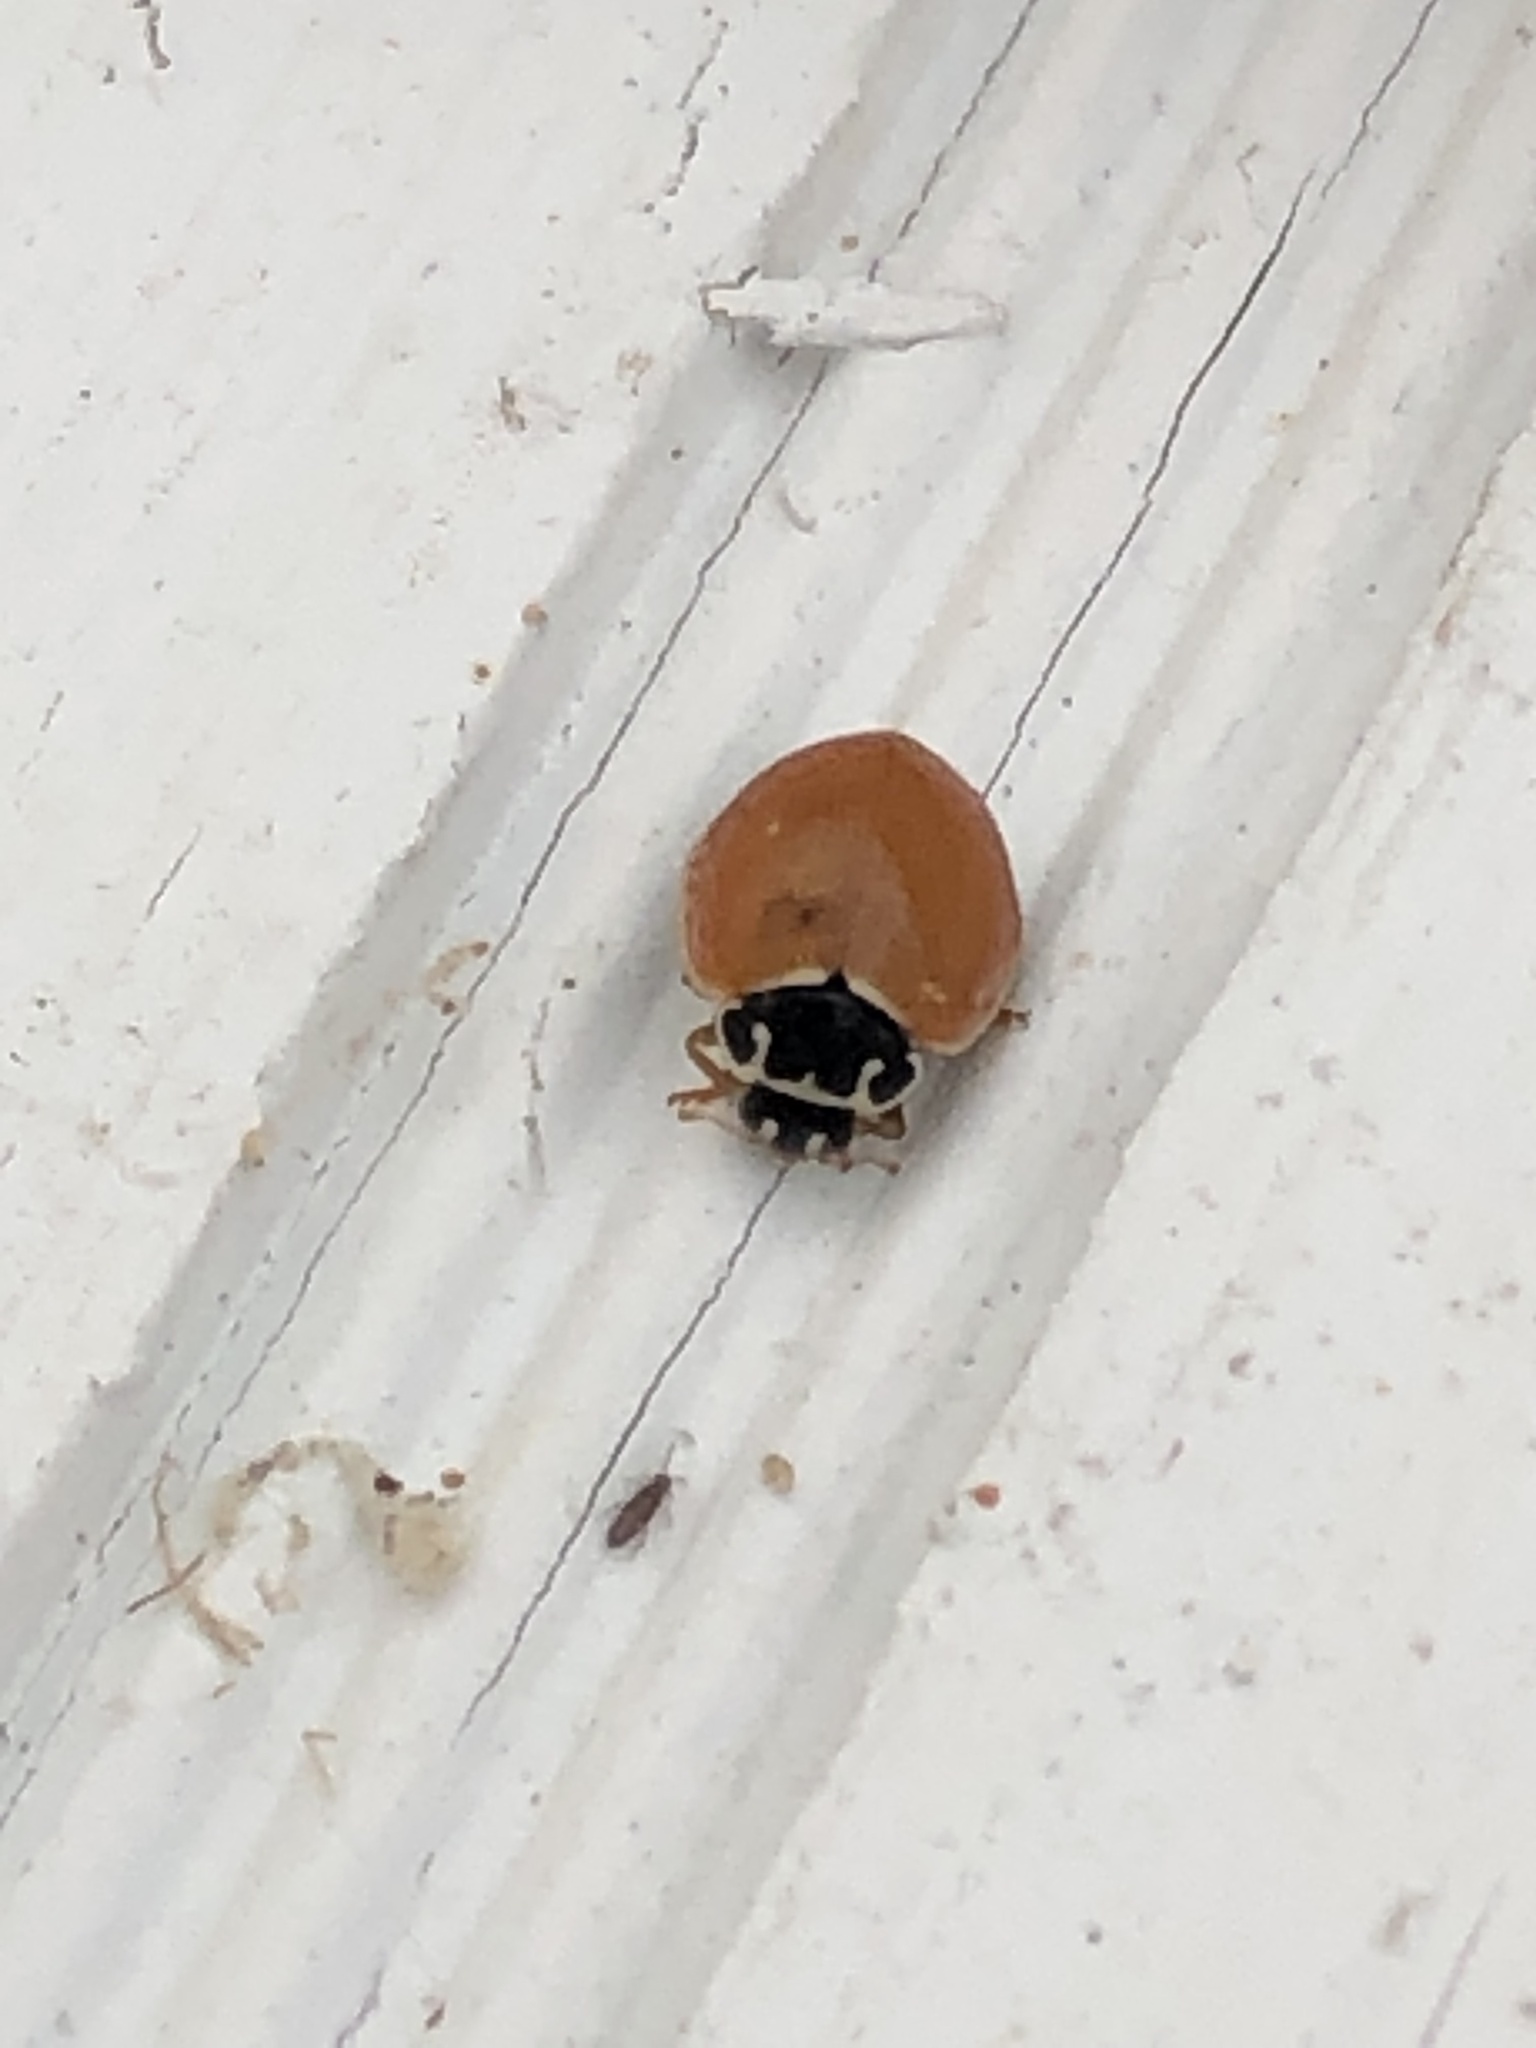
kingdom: Animalia
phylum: Arthropoda
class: Insecta
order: Coleoptera
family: Coccinellidae
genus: Cycloneda
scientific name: Cycloneda munda
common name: Polished lady beetle
